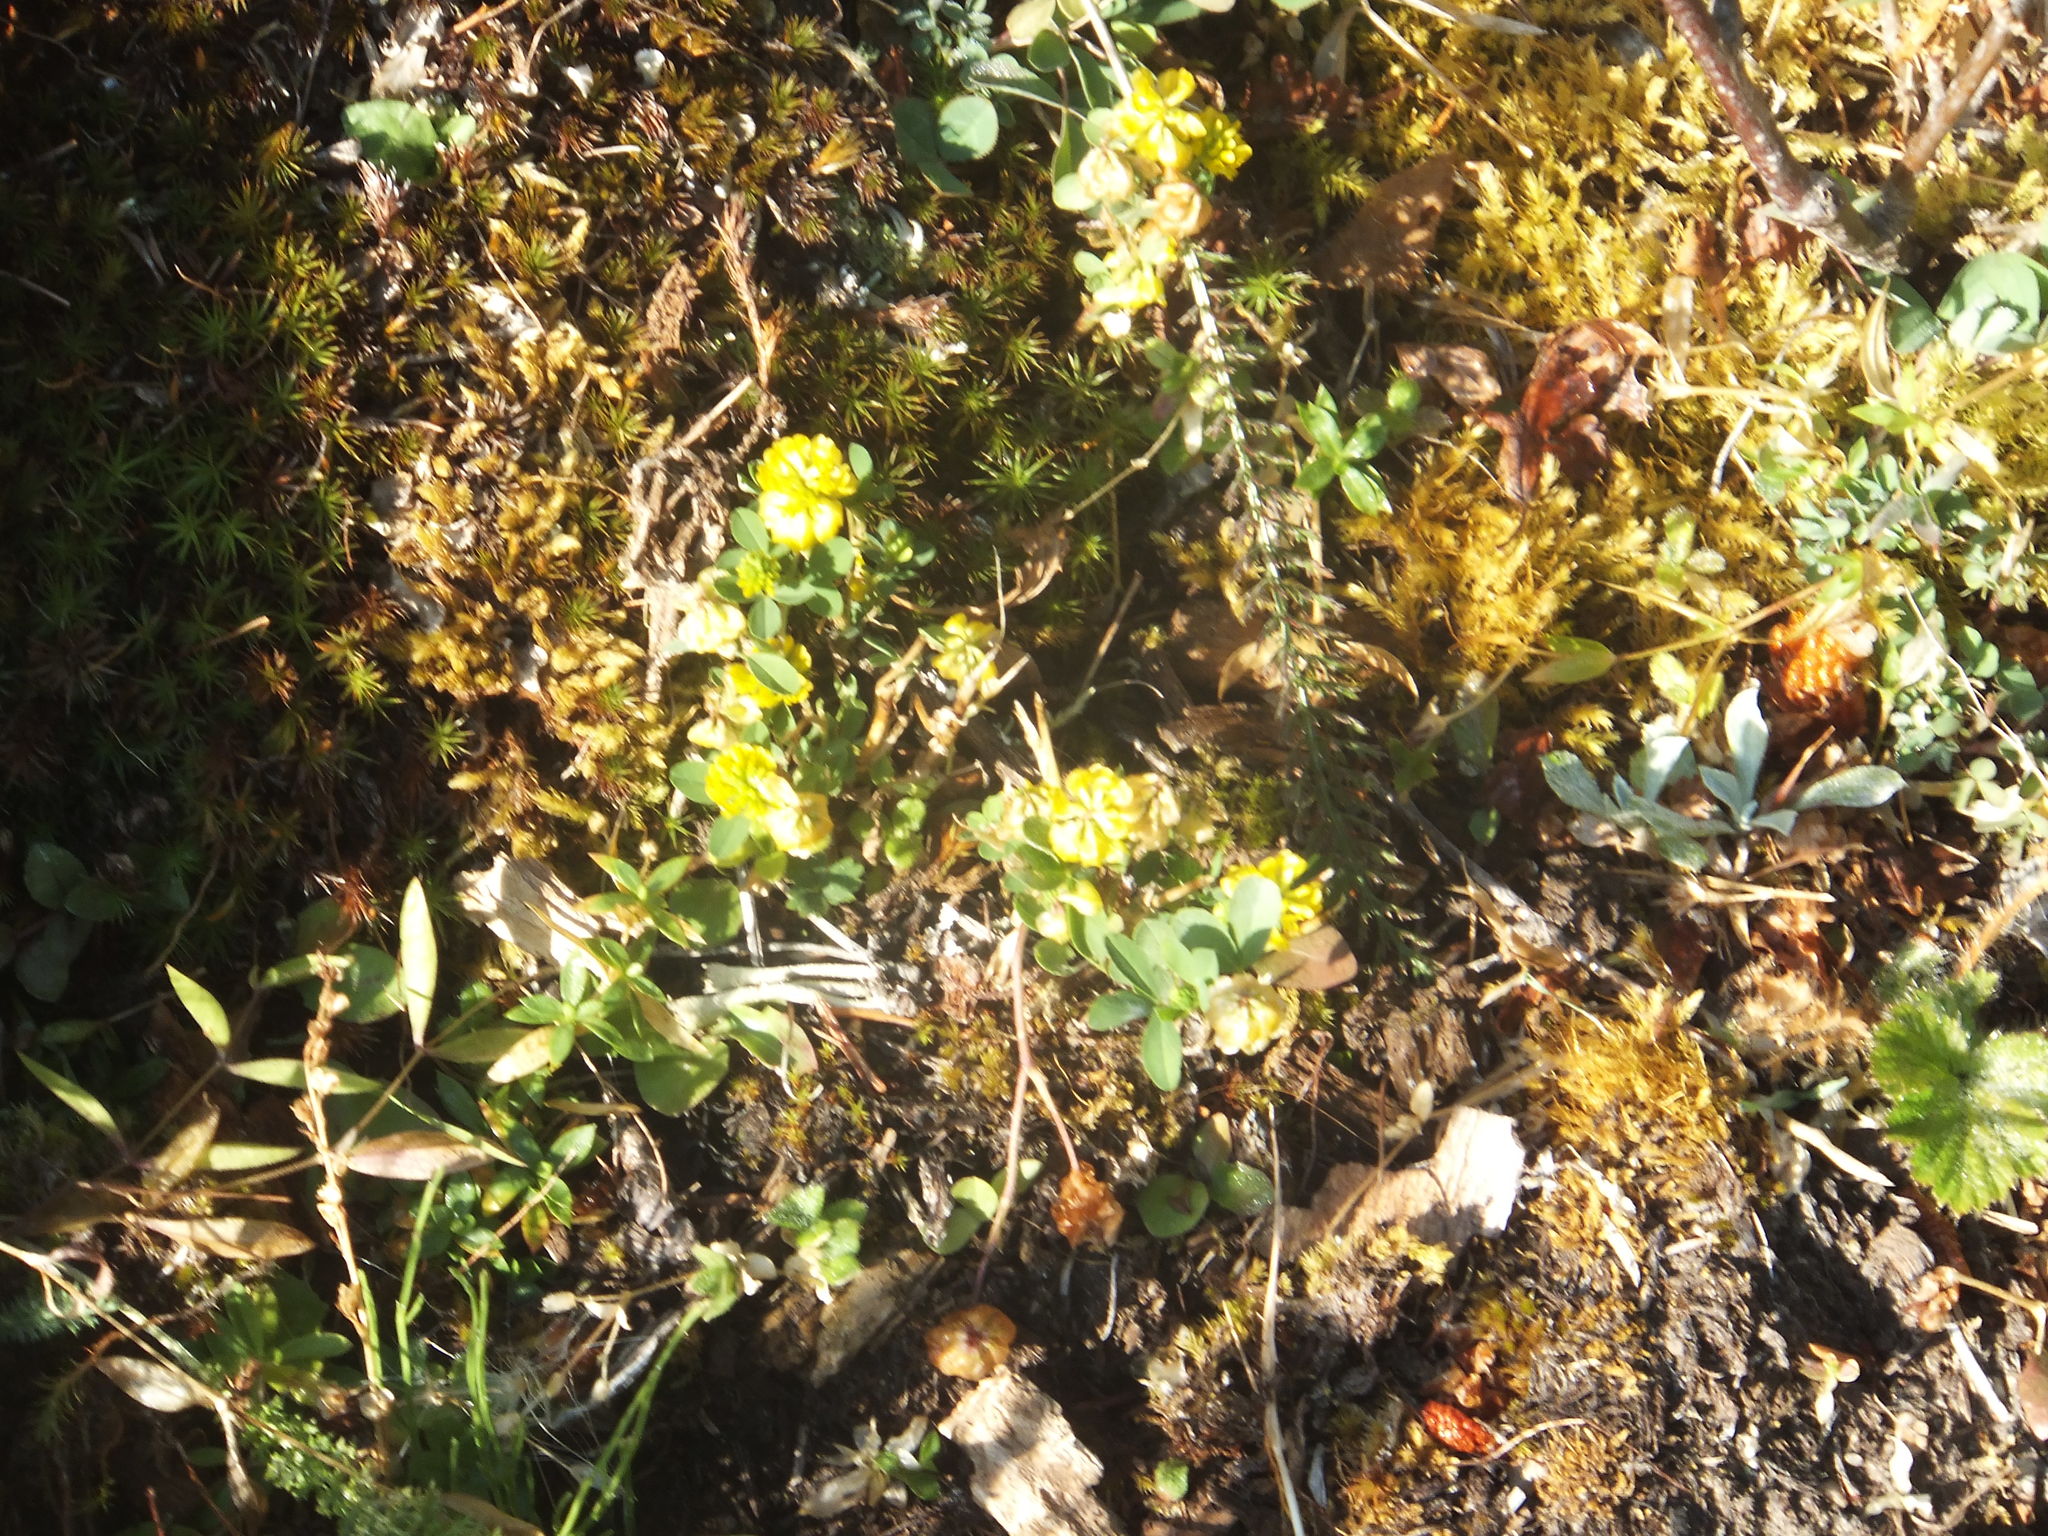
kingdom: Plantae
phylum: Tracheophyta
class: Magnoliopsida
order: Fabales
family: Fabaceae
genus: Trifolium
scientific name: Trifolium aureum
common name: Golden clover
